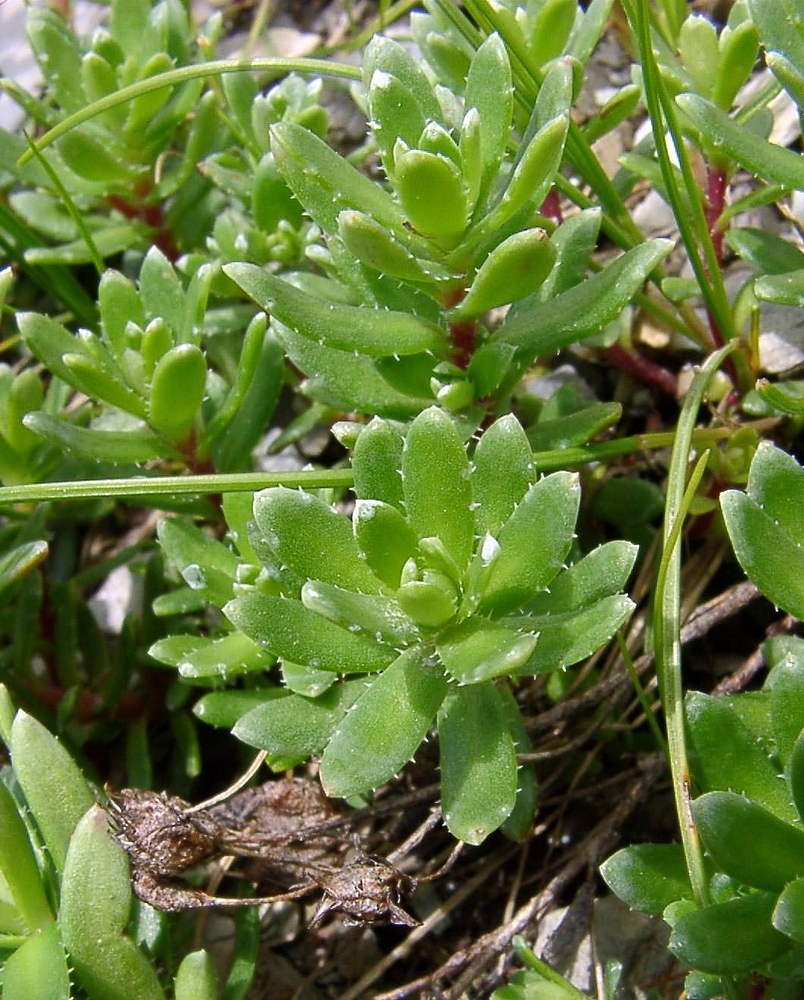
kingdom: Plantae
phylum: Tracheophyta
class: Magnoliopsida
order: Saxifragales
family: Saxifragaceae
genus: Saxifraga
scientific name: Saxifraga aizoides
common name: Yellow mountain saxifrage
